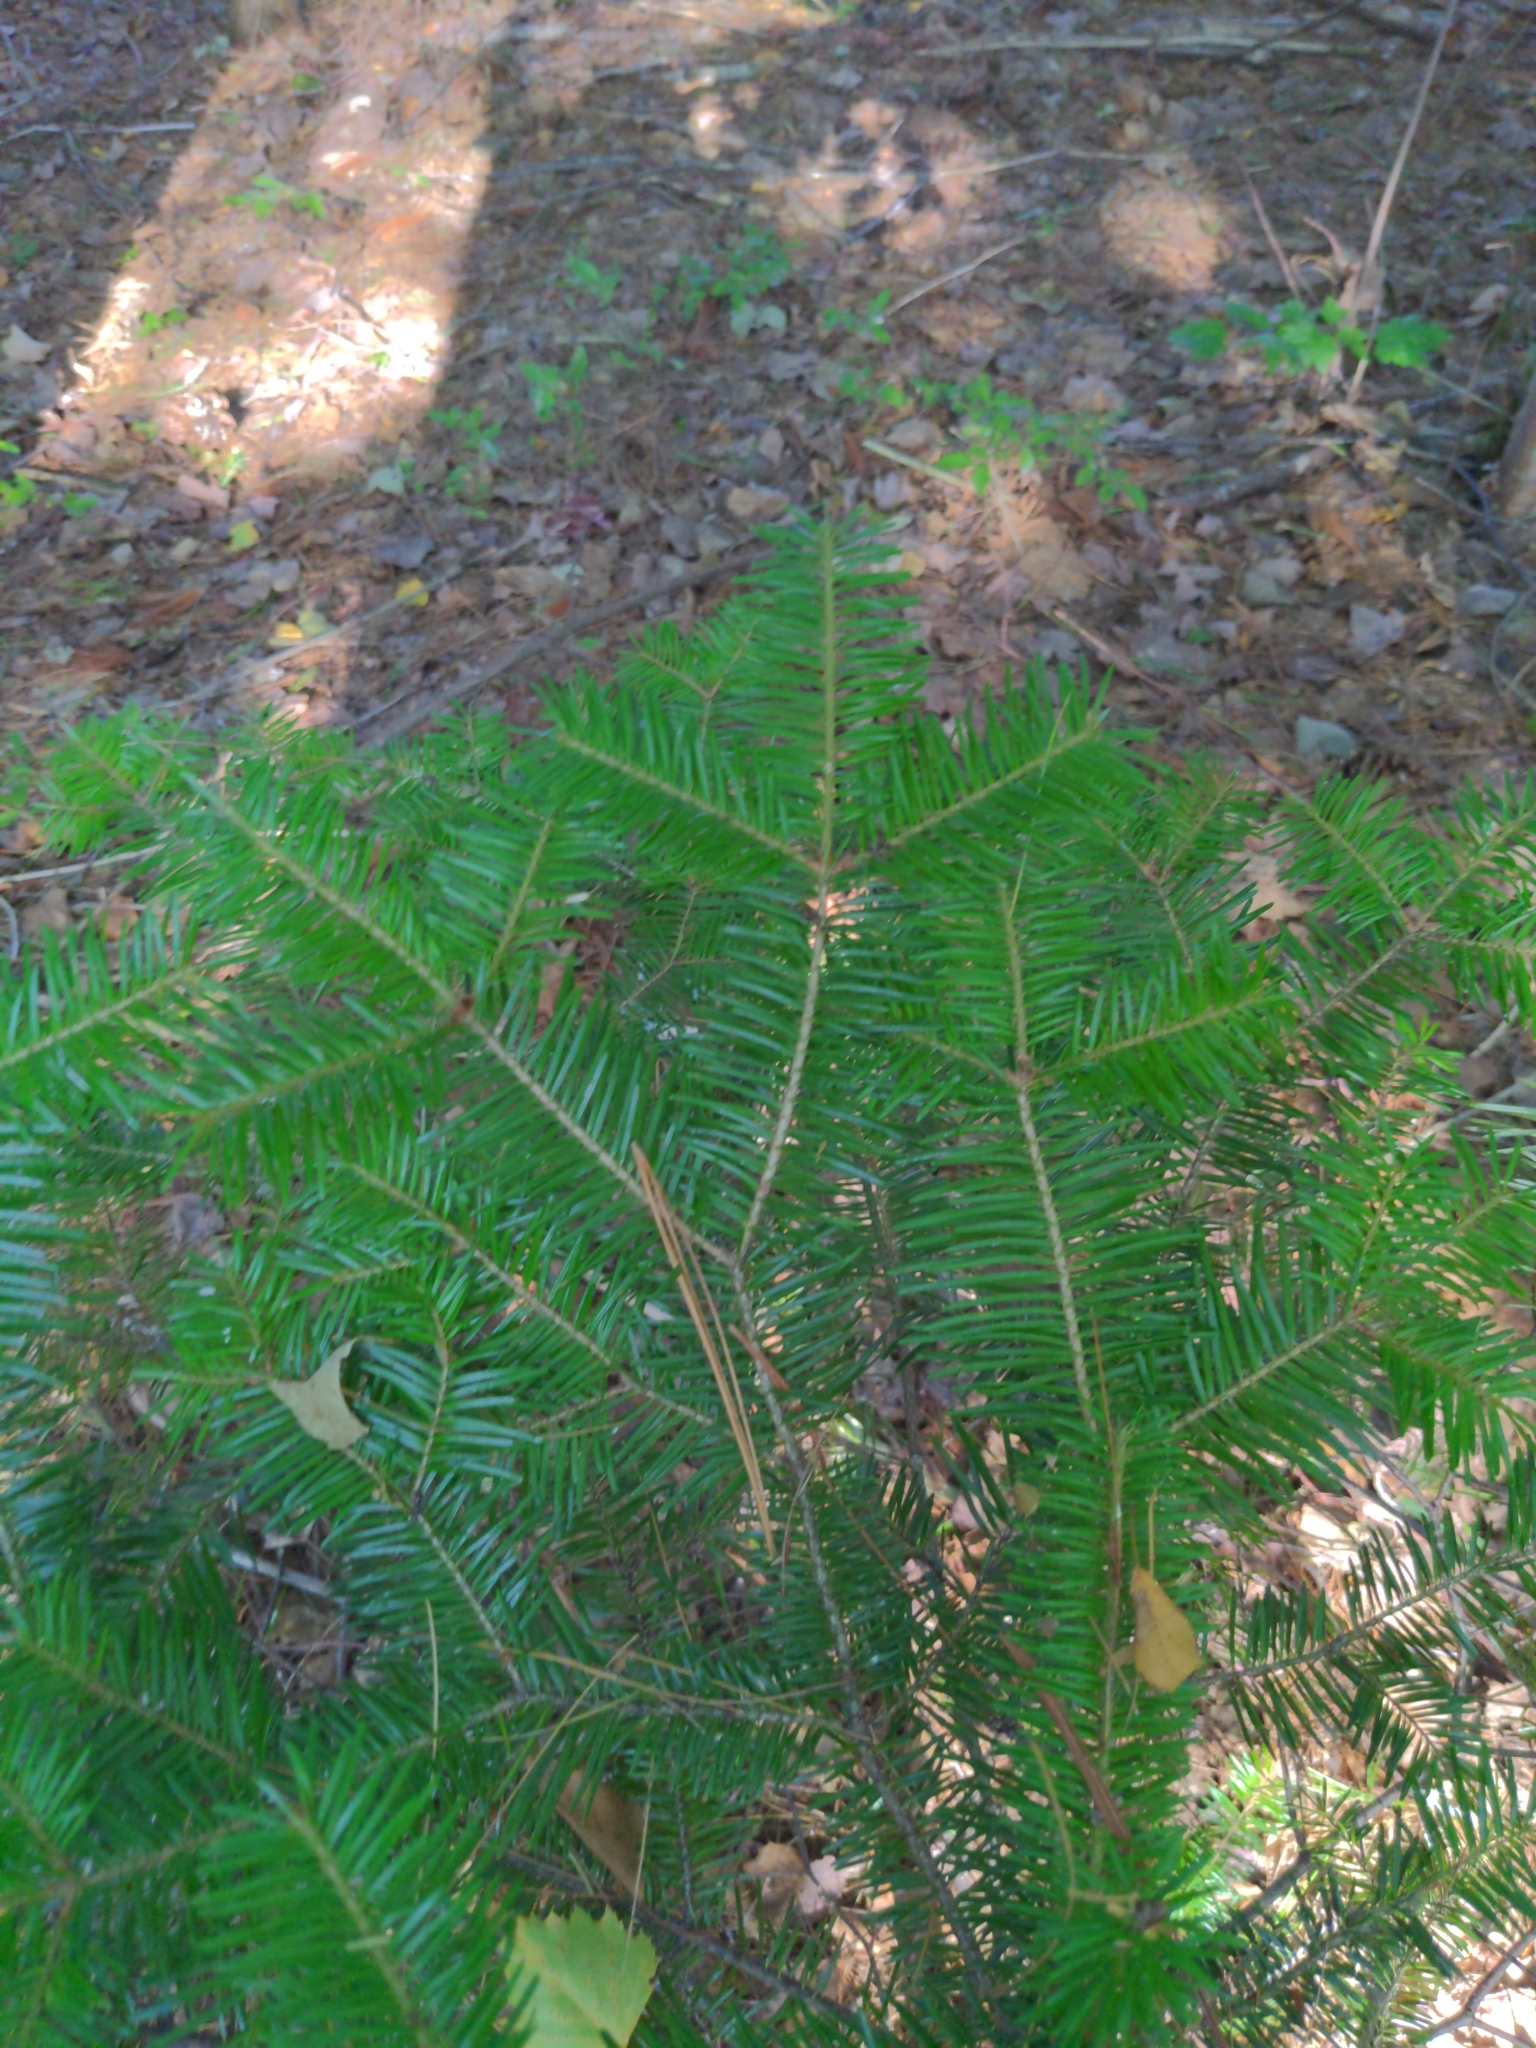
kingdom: Plantae
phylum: Tracheophyta
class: Pinopsida
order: Pinales
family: Pinaceae
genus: Abies
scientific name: Abies balsamea
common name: Balsam fir
